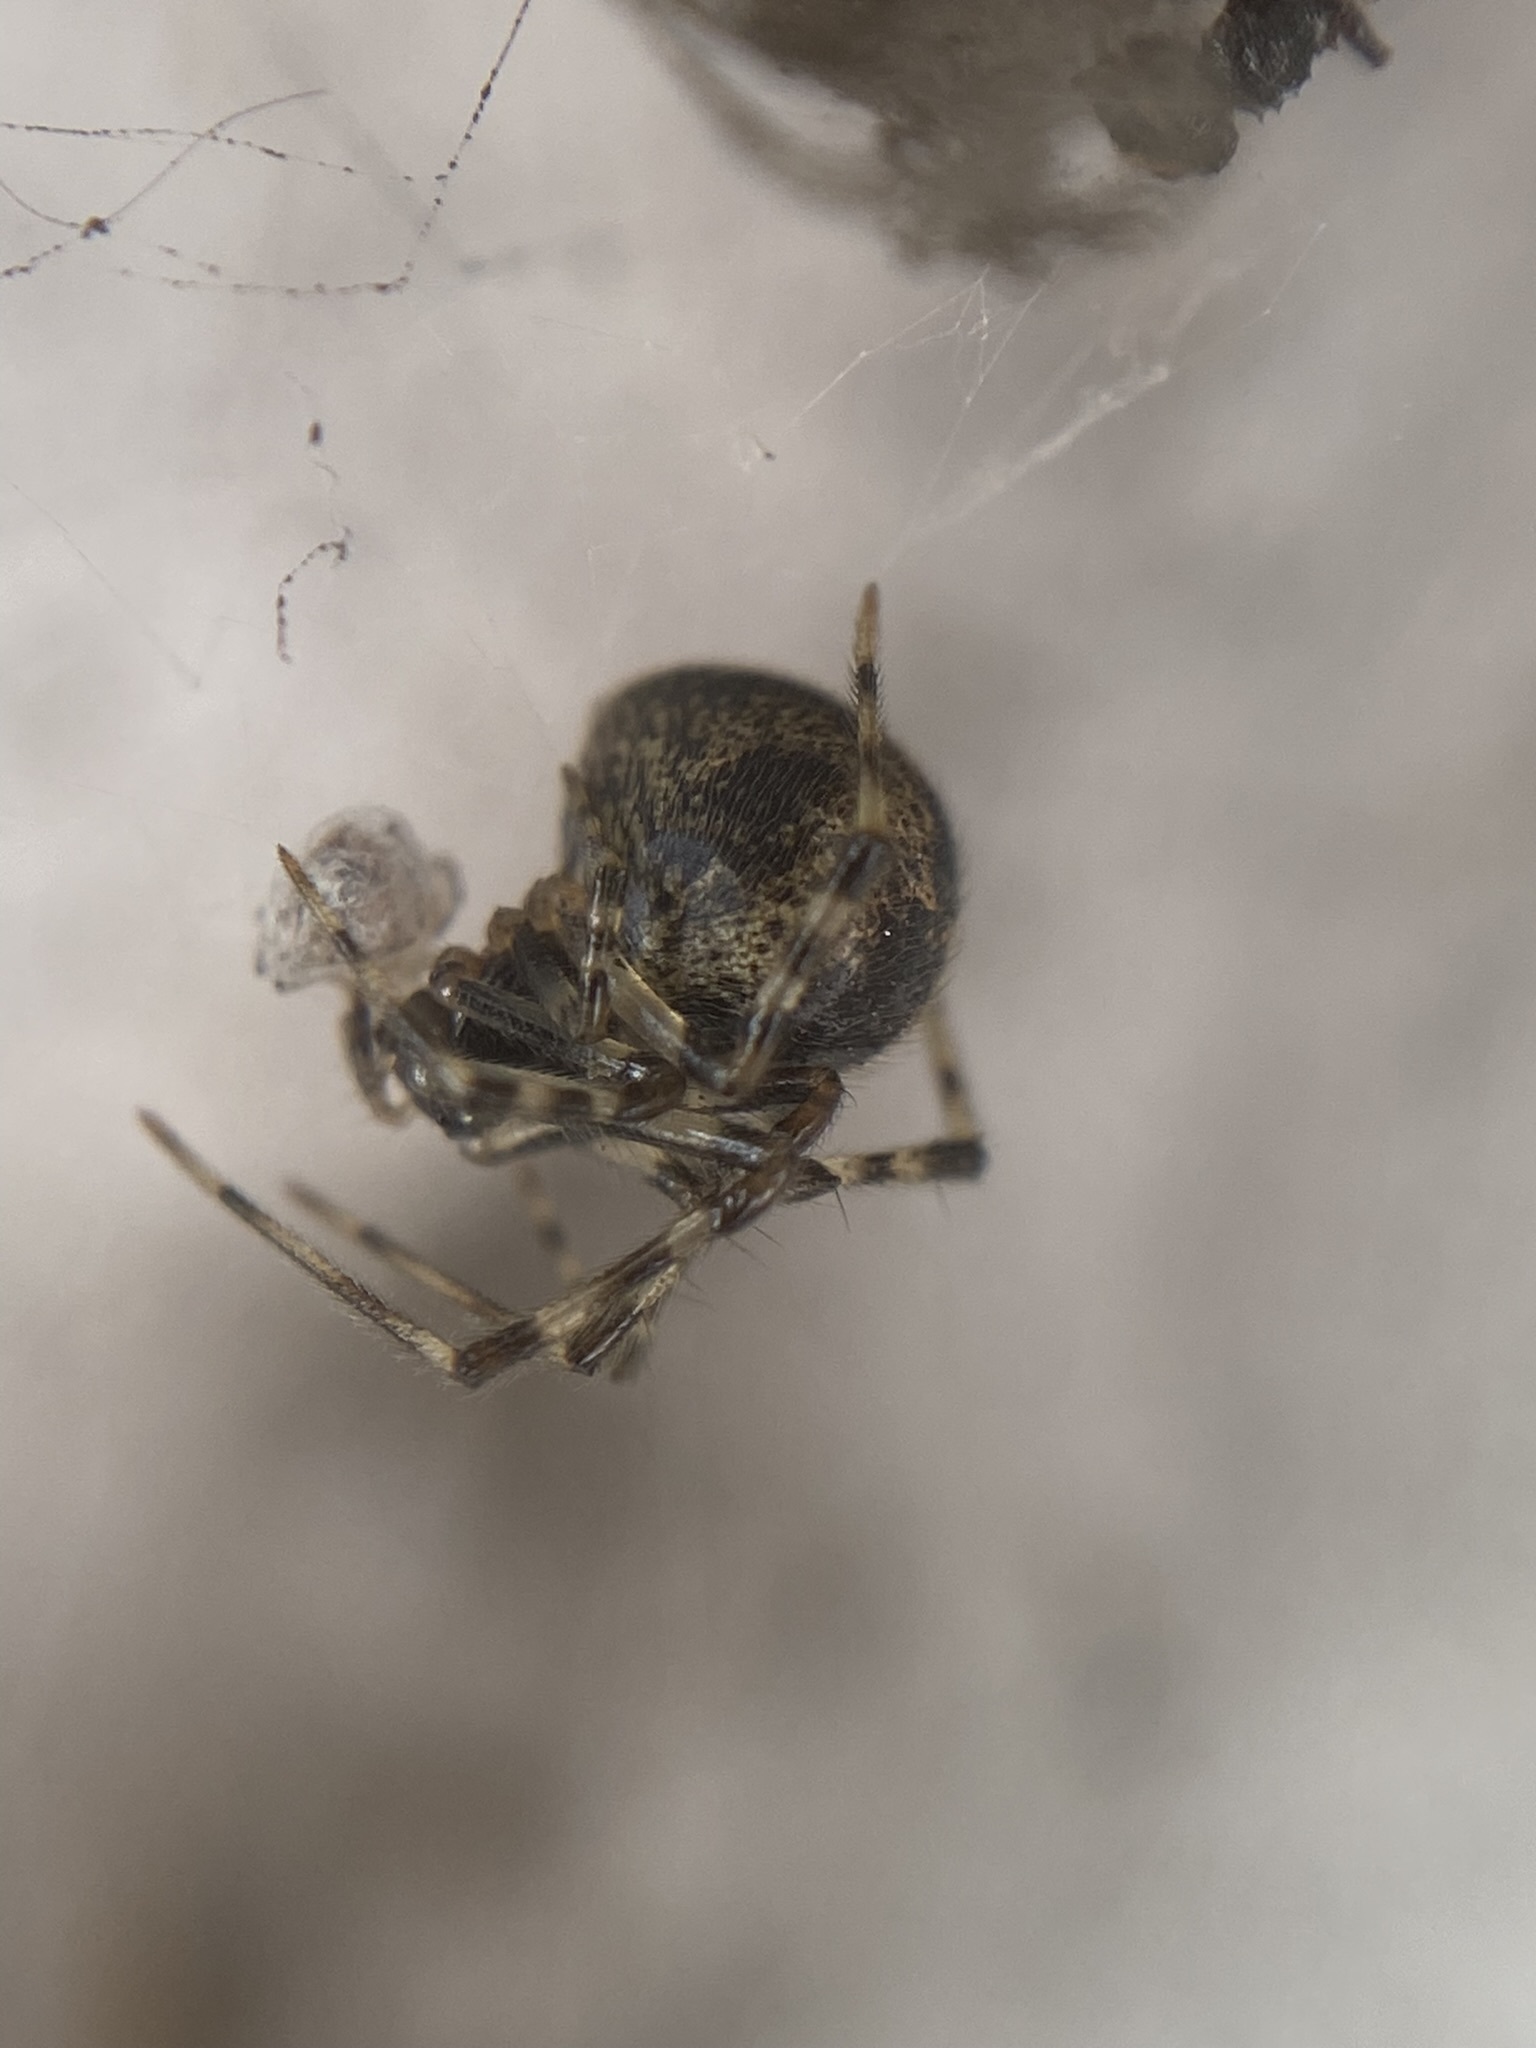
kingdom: Animalia
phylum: Arthropoda
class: Arachnida
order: Araneae
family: Theridiidae
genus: Parasteatoda
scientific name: Parasteatoda tepidariorum
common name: Common house spider
